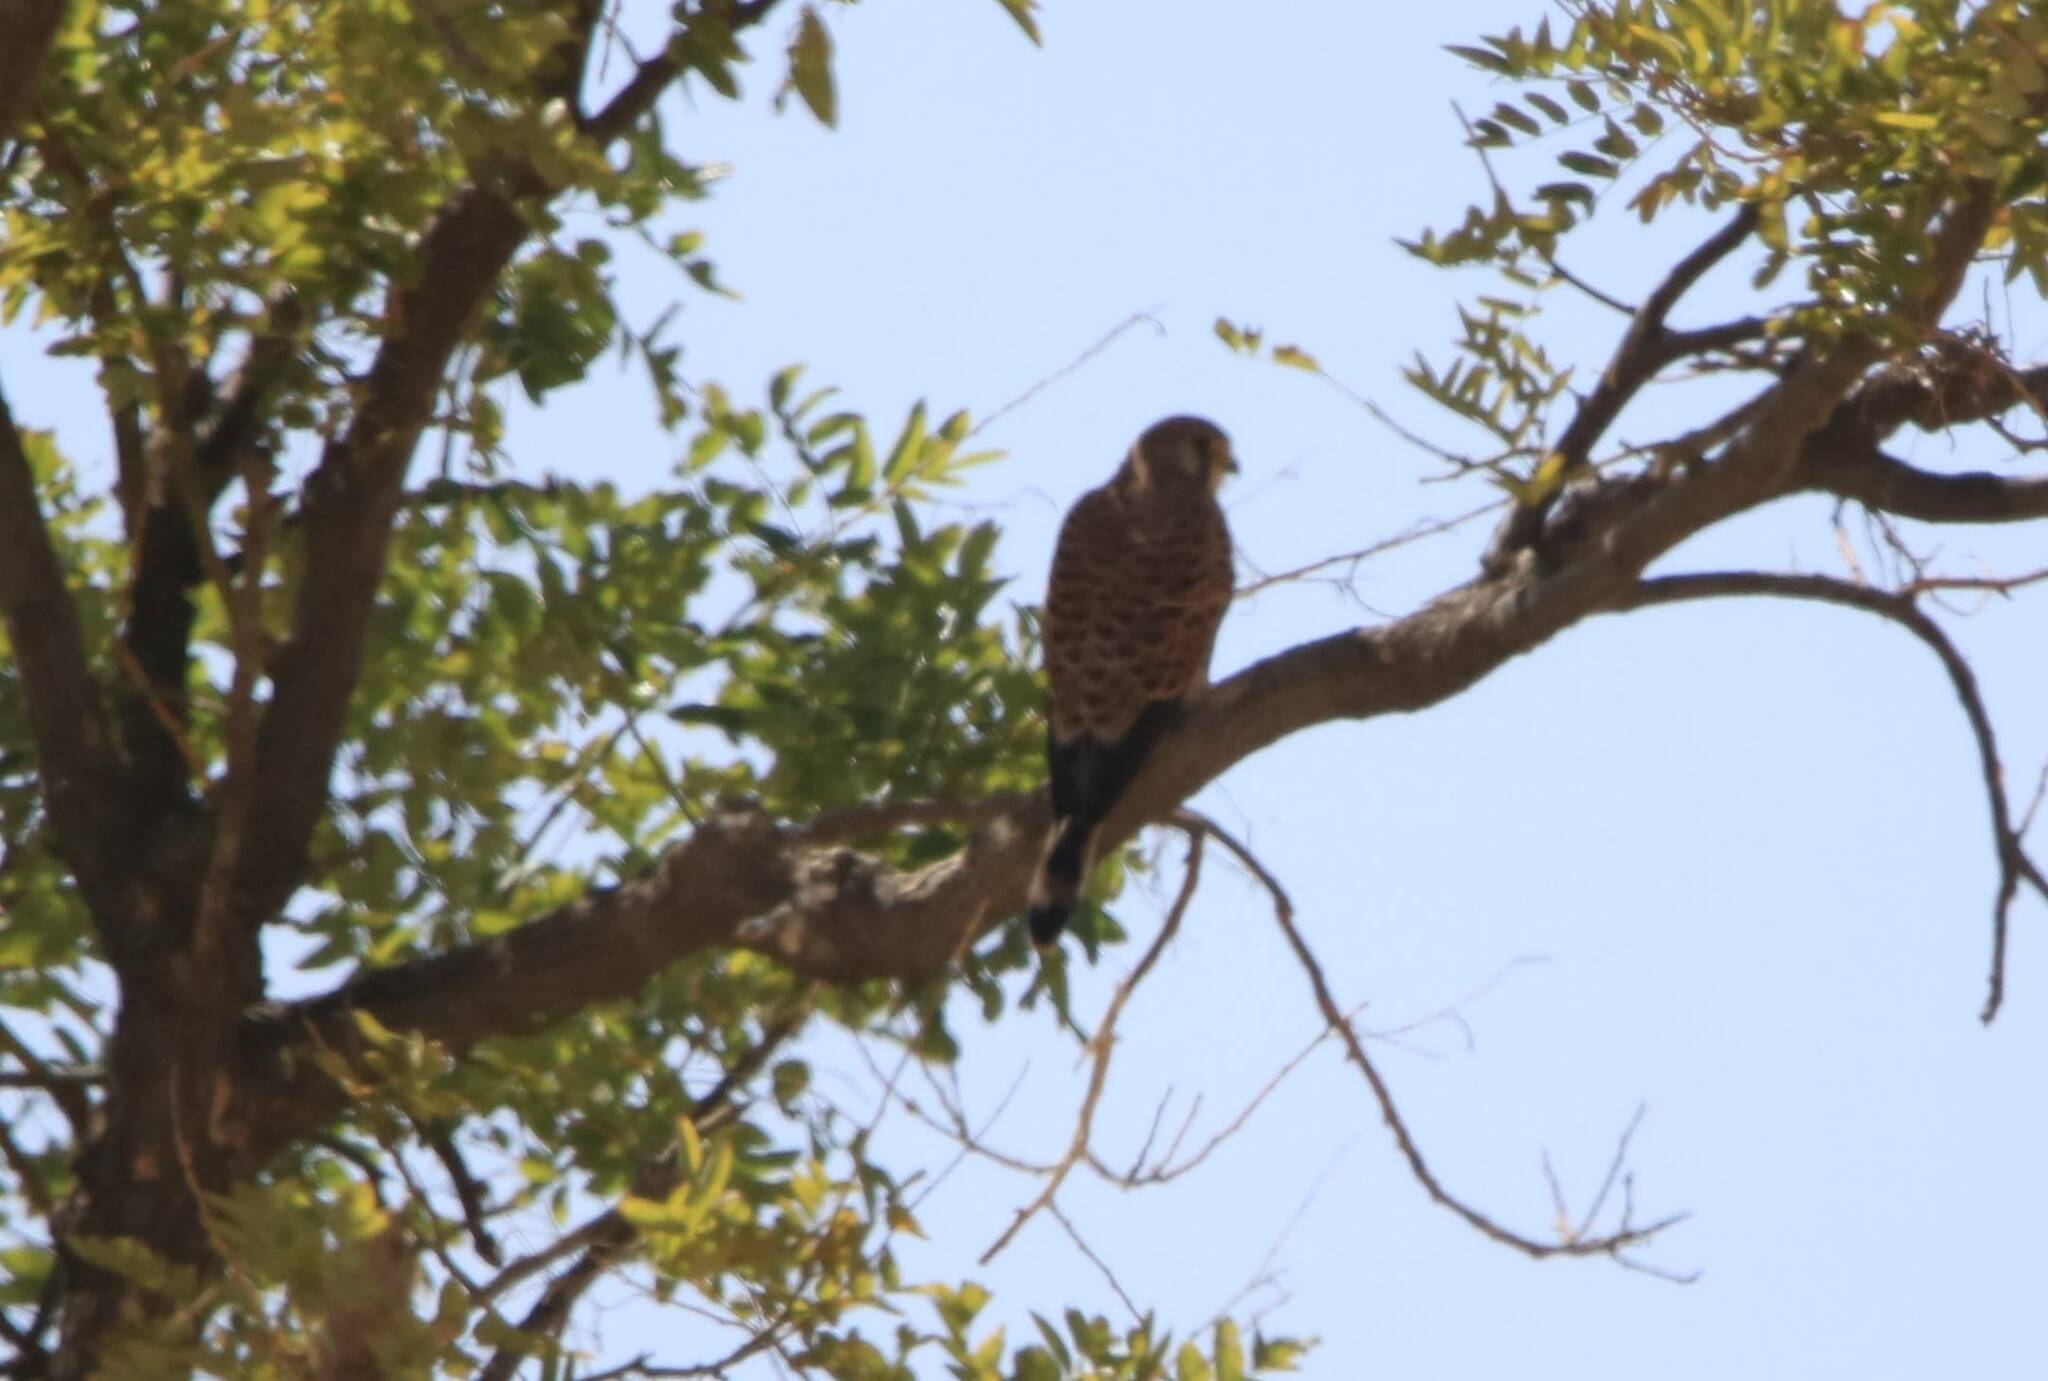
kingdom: Animalia
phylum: Chordata
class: Aves
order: Falconiformes
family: Falconidae
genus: Falco
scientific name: Falco tinnunculus
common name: Common kestrel
